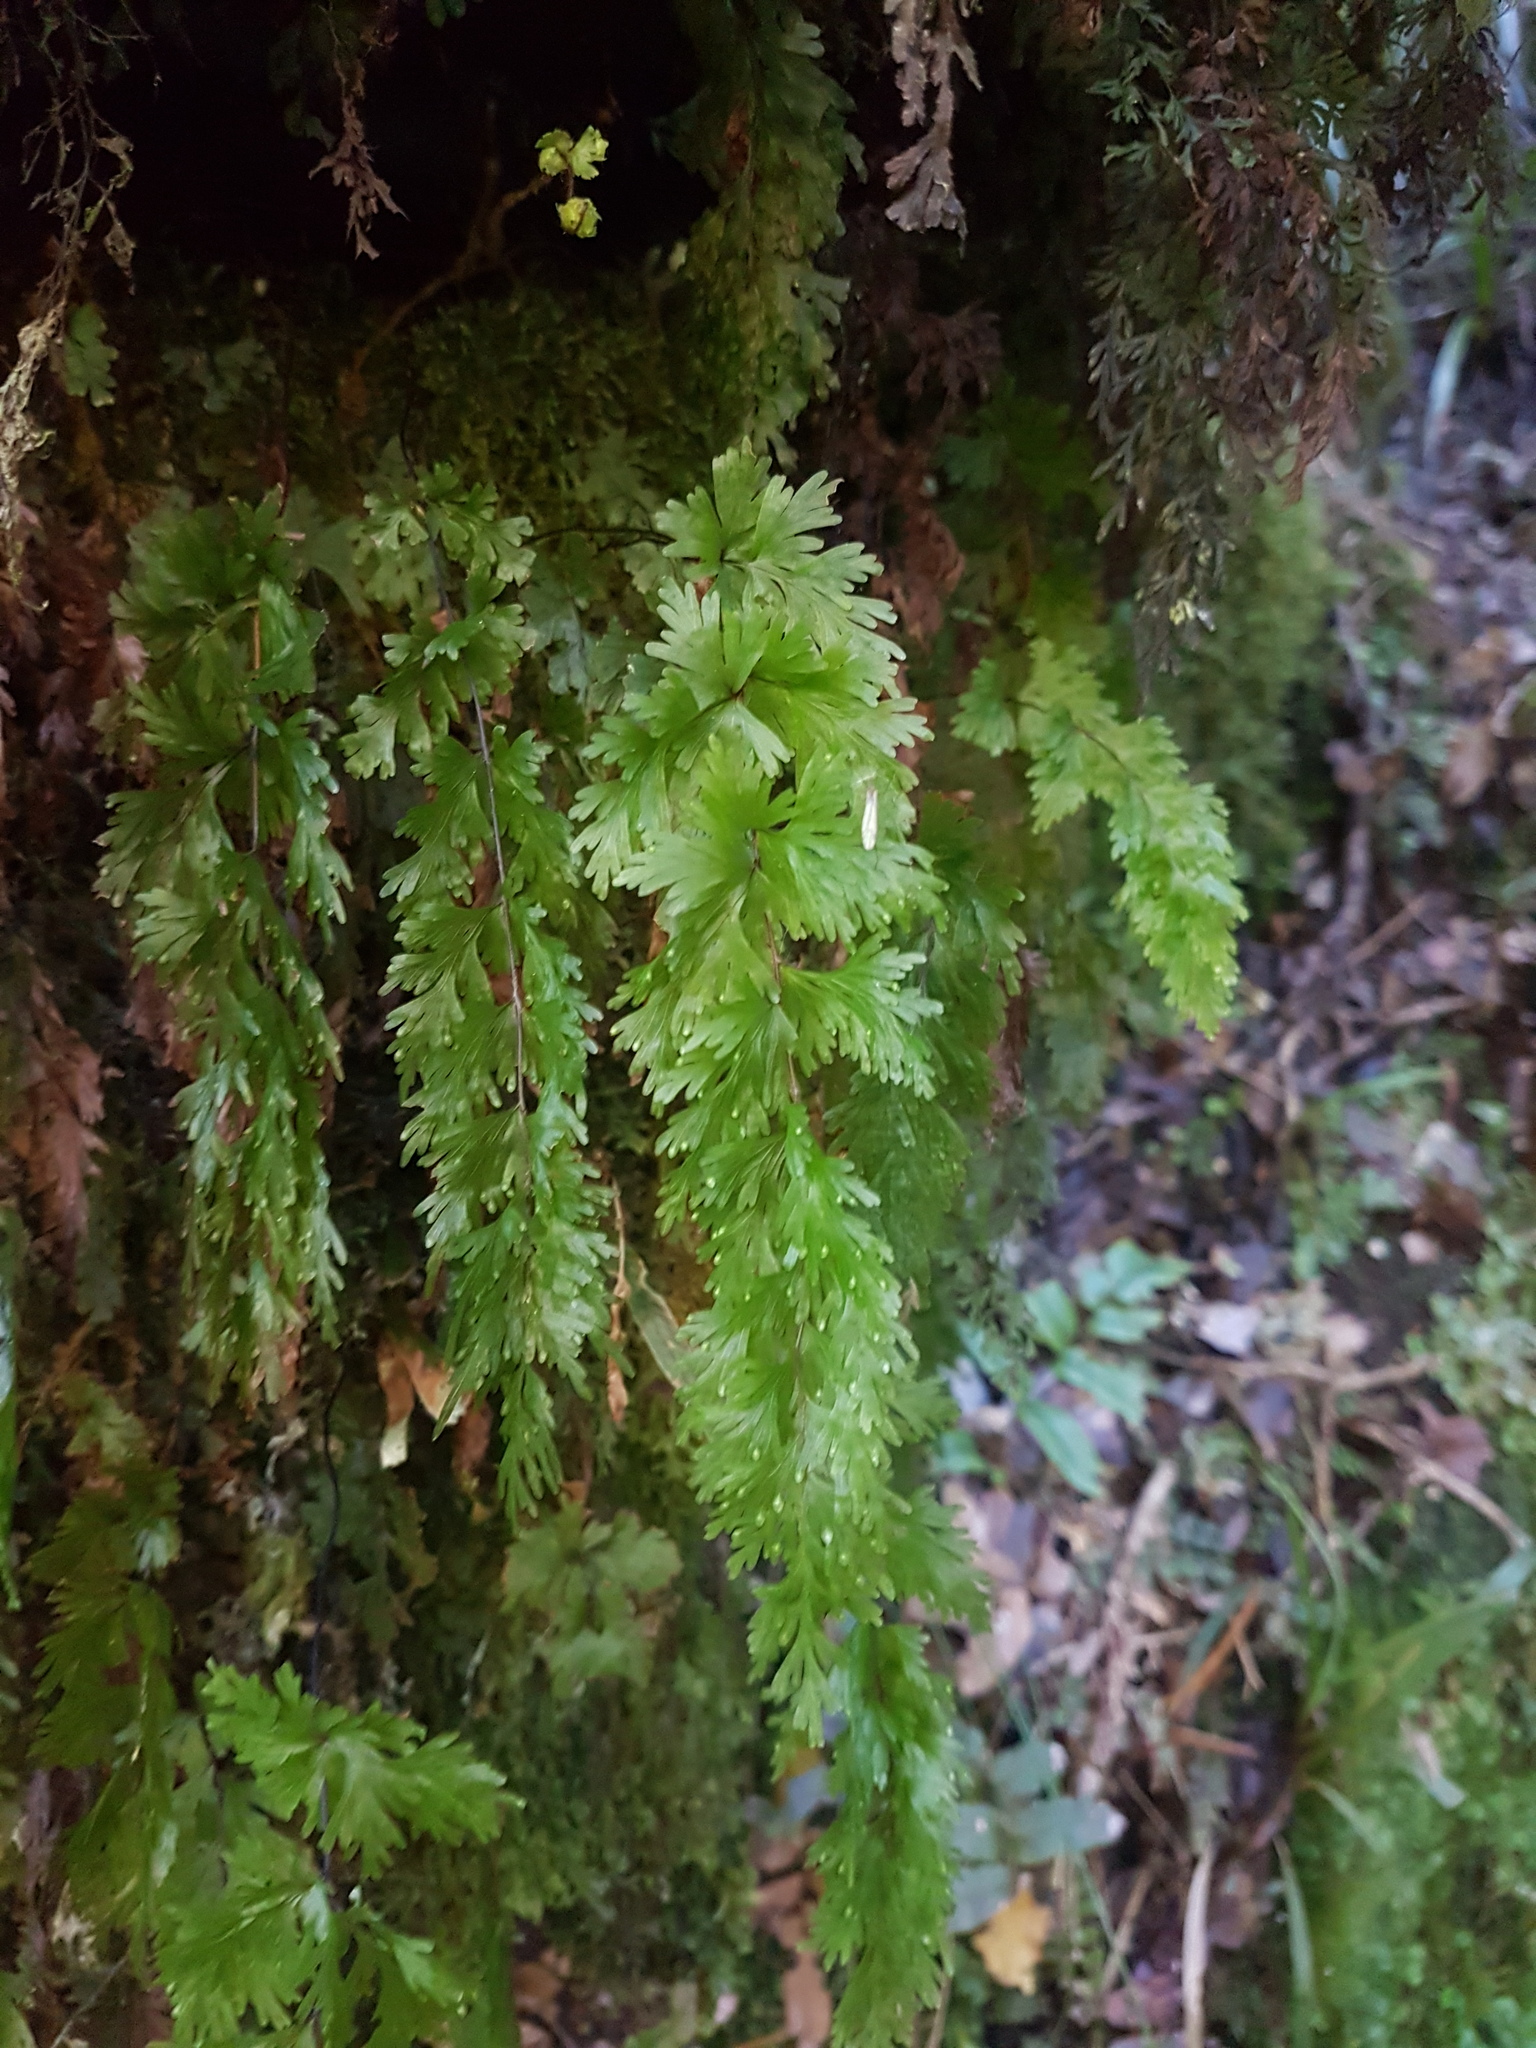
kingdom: Plantae
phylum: Tracheophyta
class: Polypodiopsida
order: Hymenophyllales
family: Hymenophyllaceae
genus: Hymenophyllum
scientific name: Hymenophyllum flabellatum
